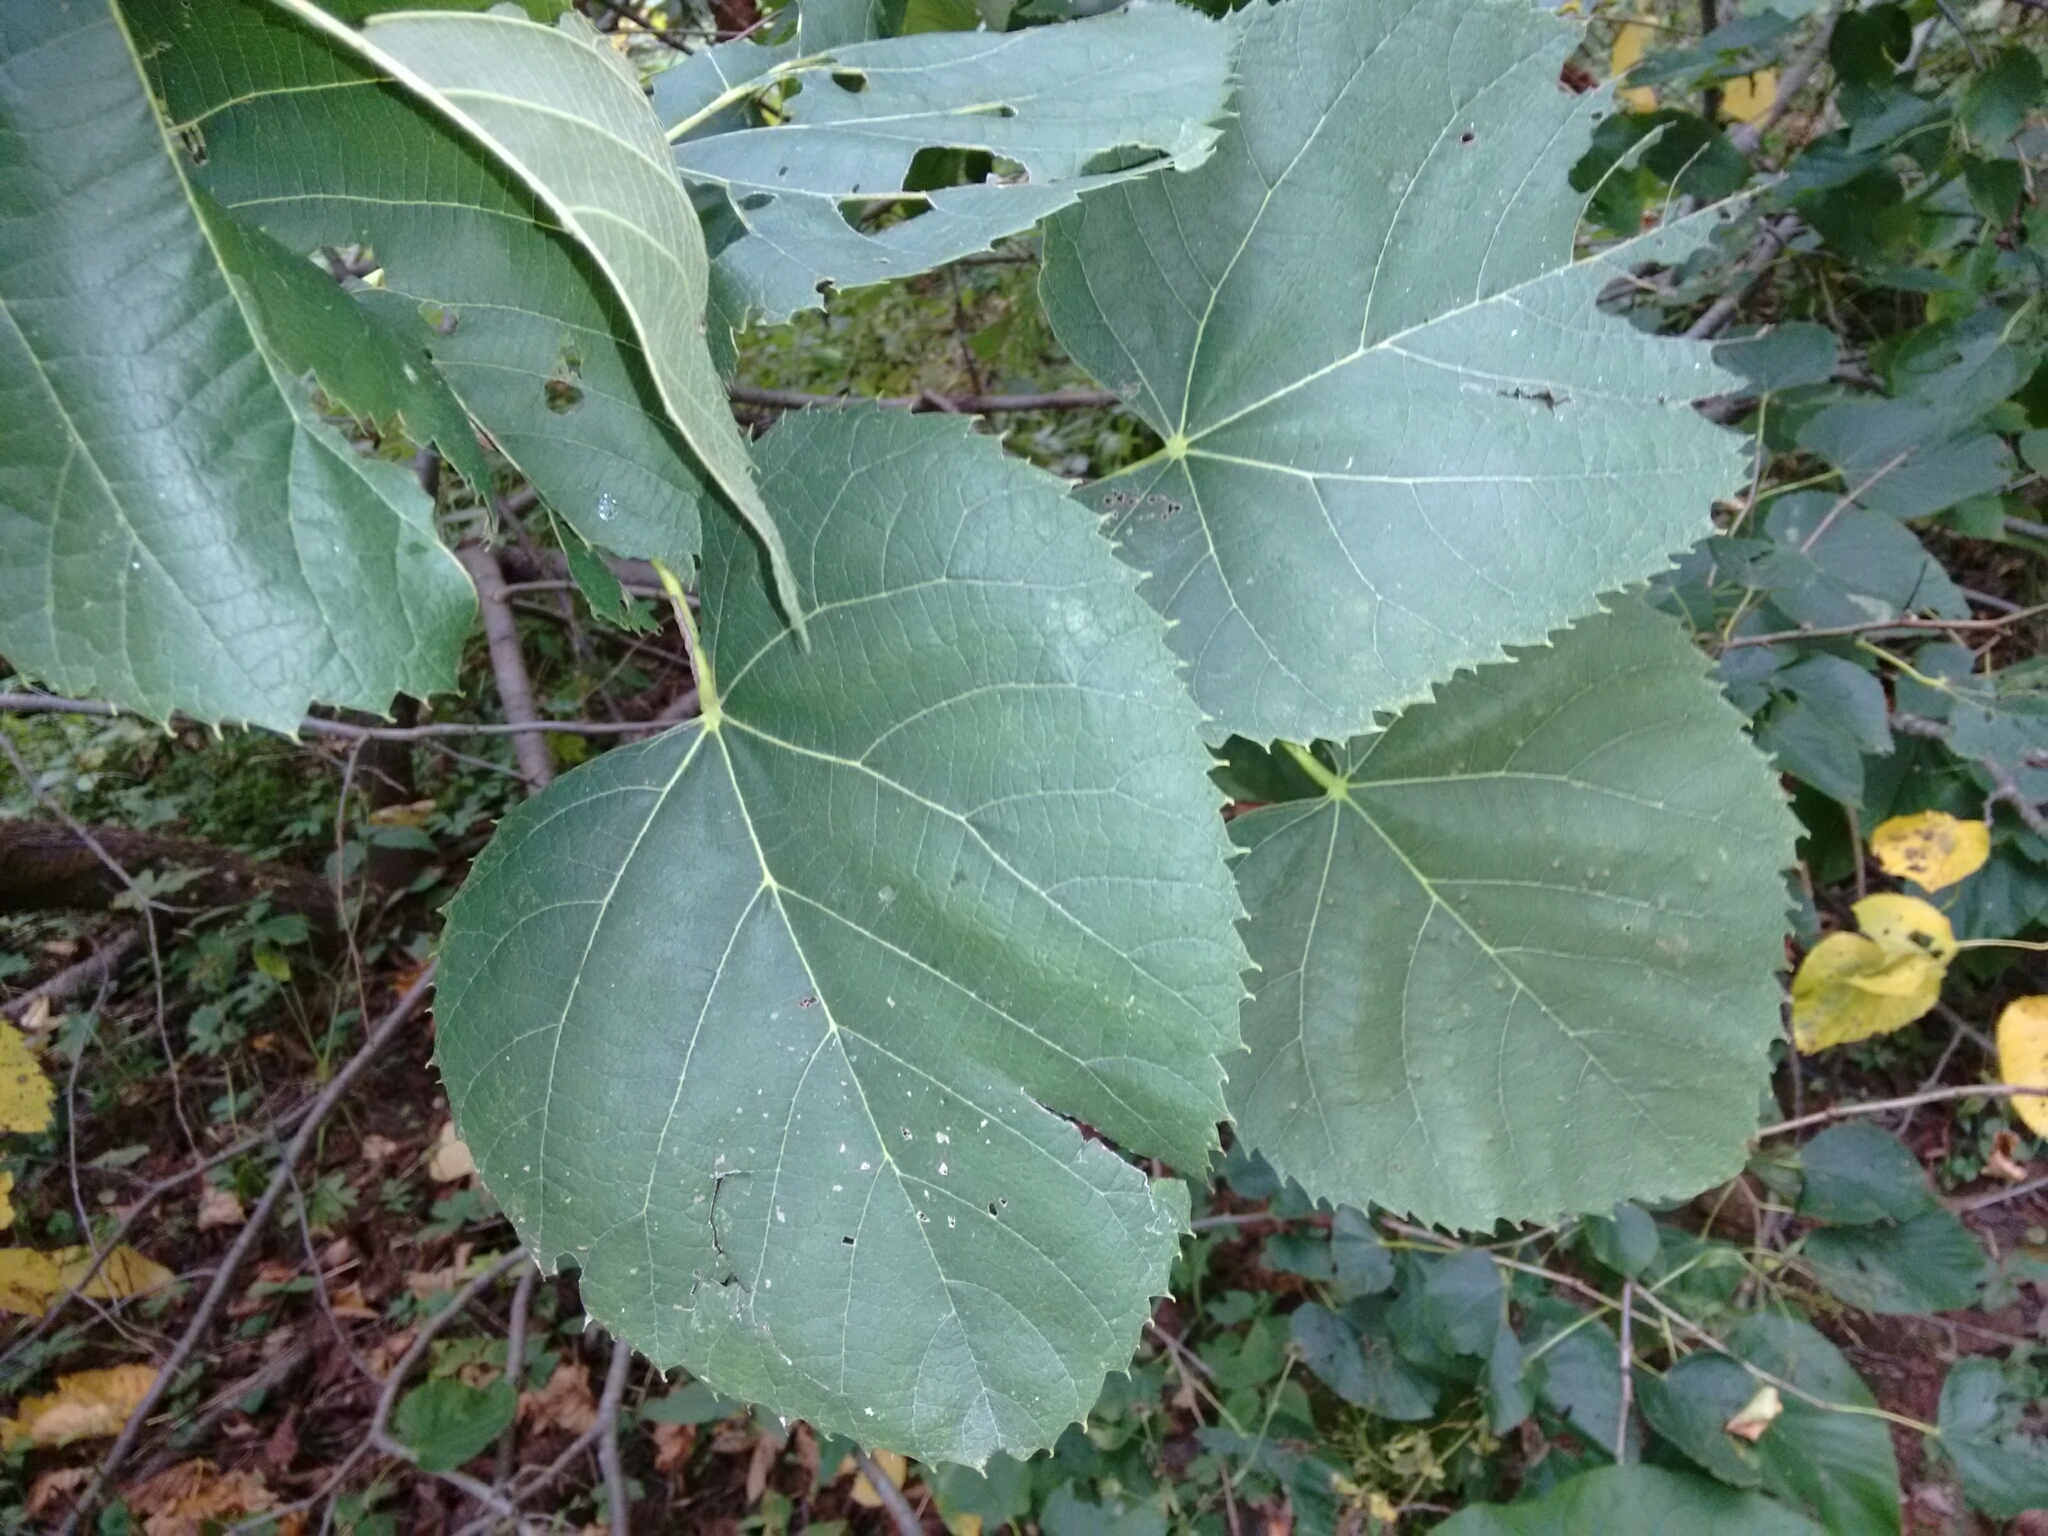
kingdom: Plantae
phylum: Tracheophyta
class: Magnoliopsida
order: Malvales
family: Malvaceae
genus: Tilia
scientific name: Tilia americana
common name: Basswood
